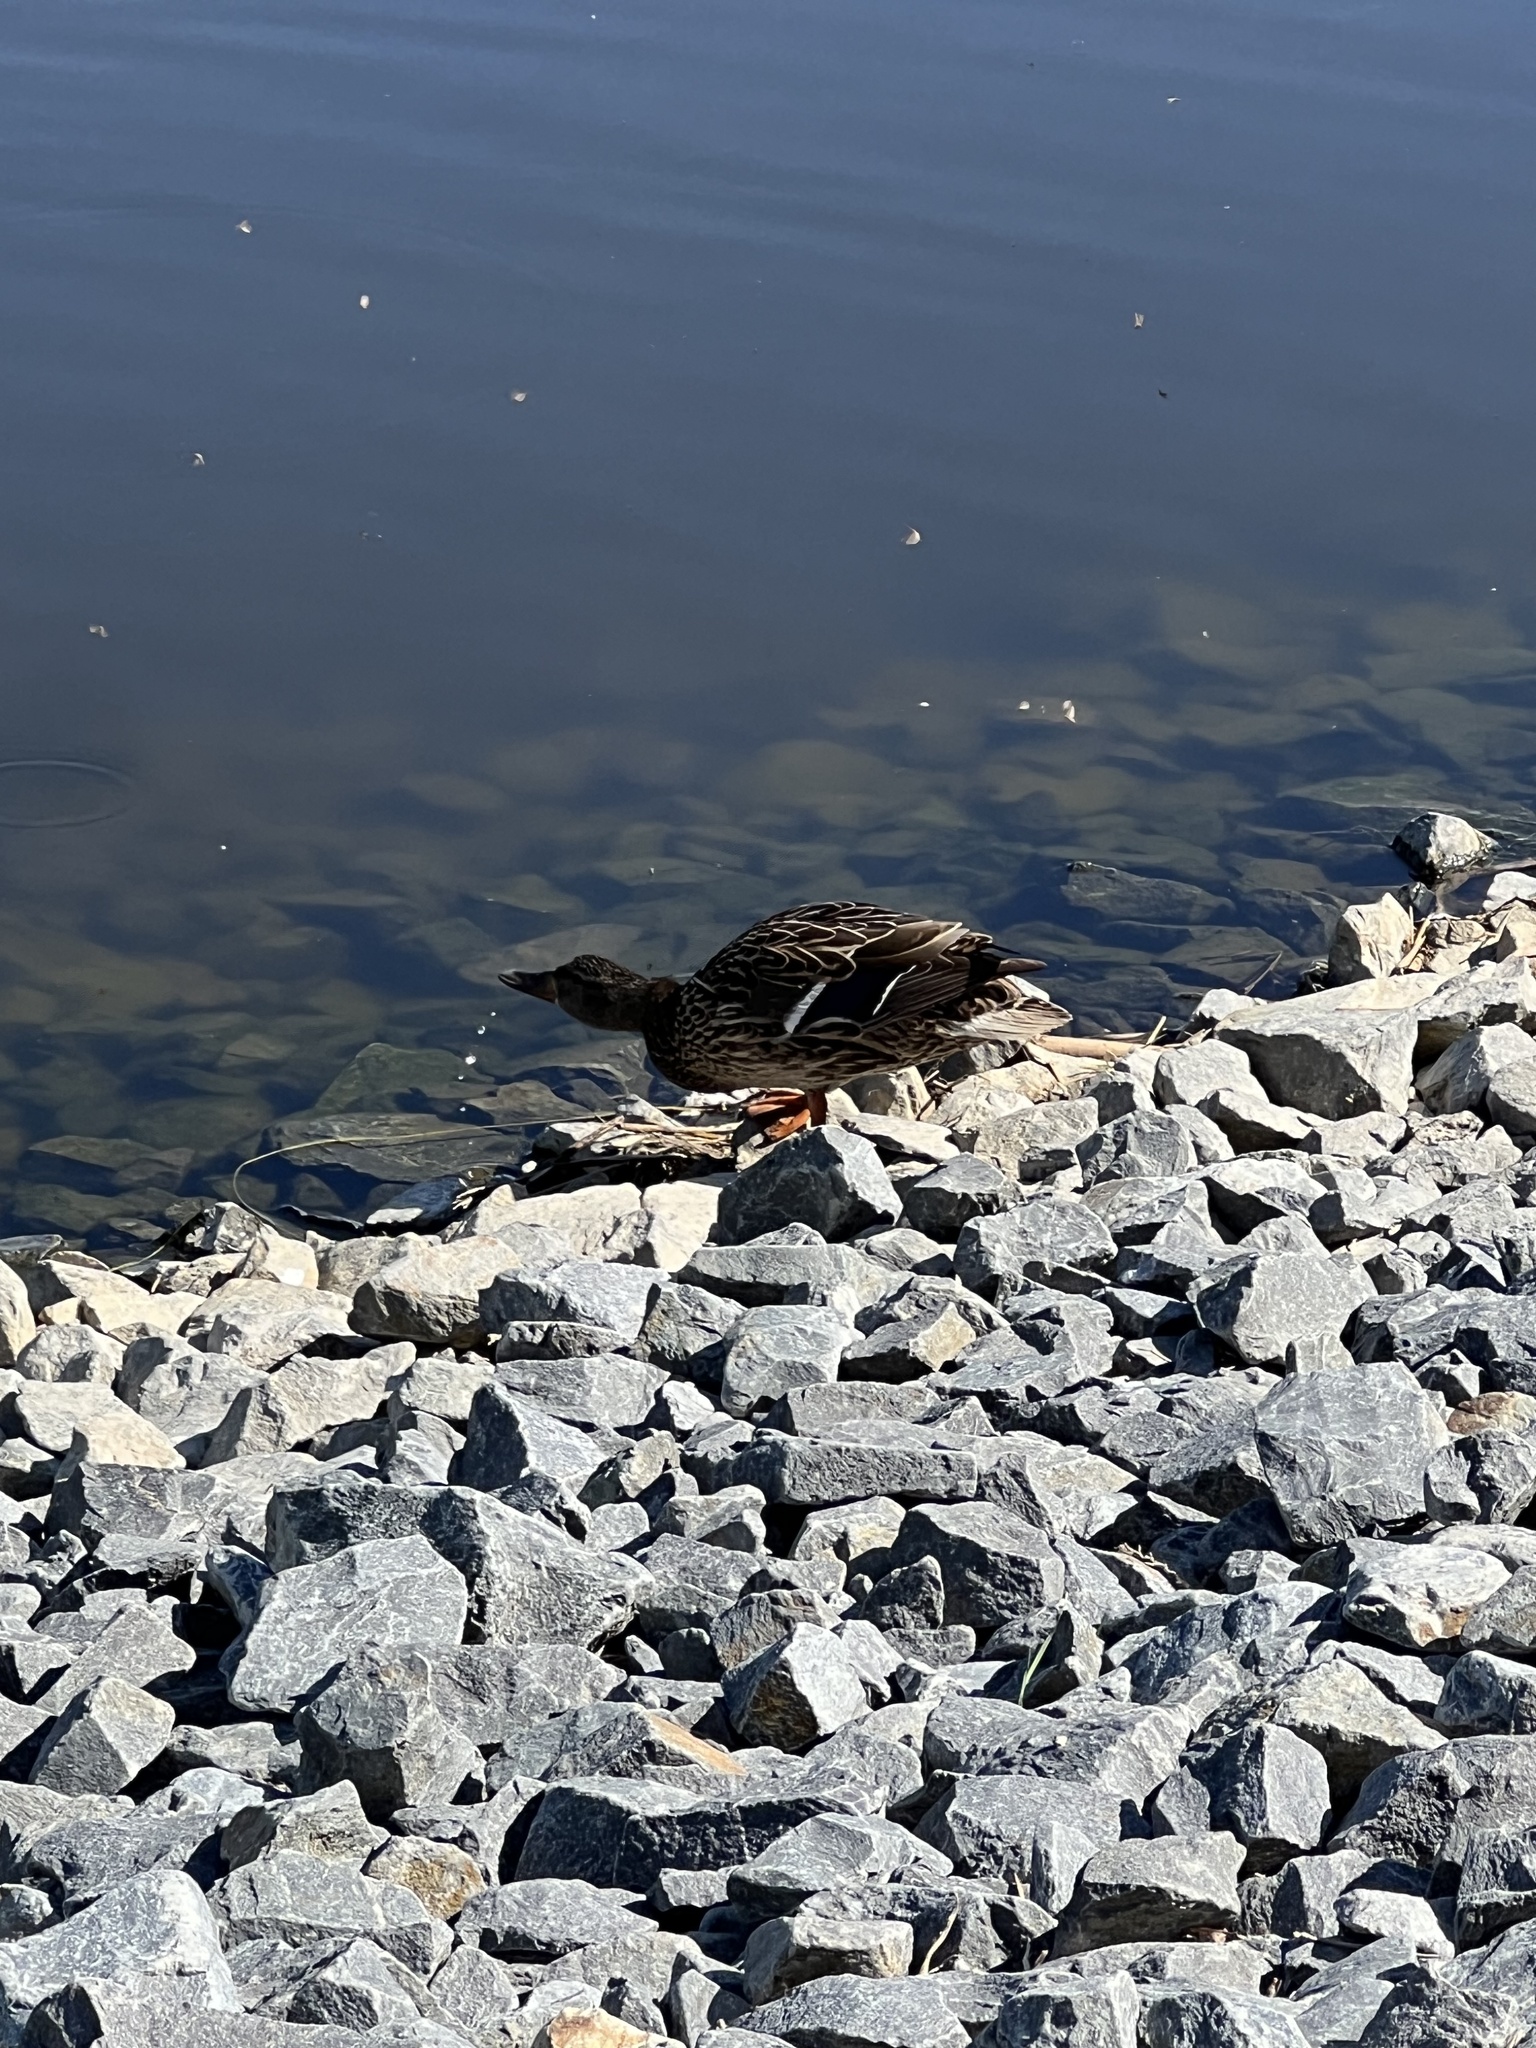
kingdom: Animalia
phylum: Chordata
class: Aves
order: Anseriformes
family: Anatidae
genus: Anas
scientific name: Anas platyrhynchos
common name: Mallard
